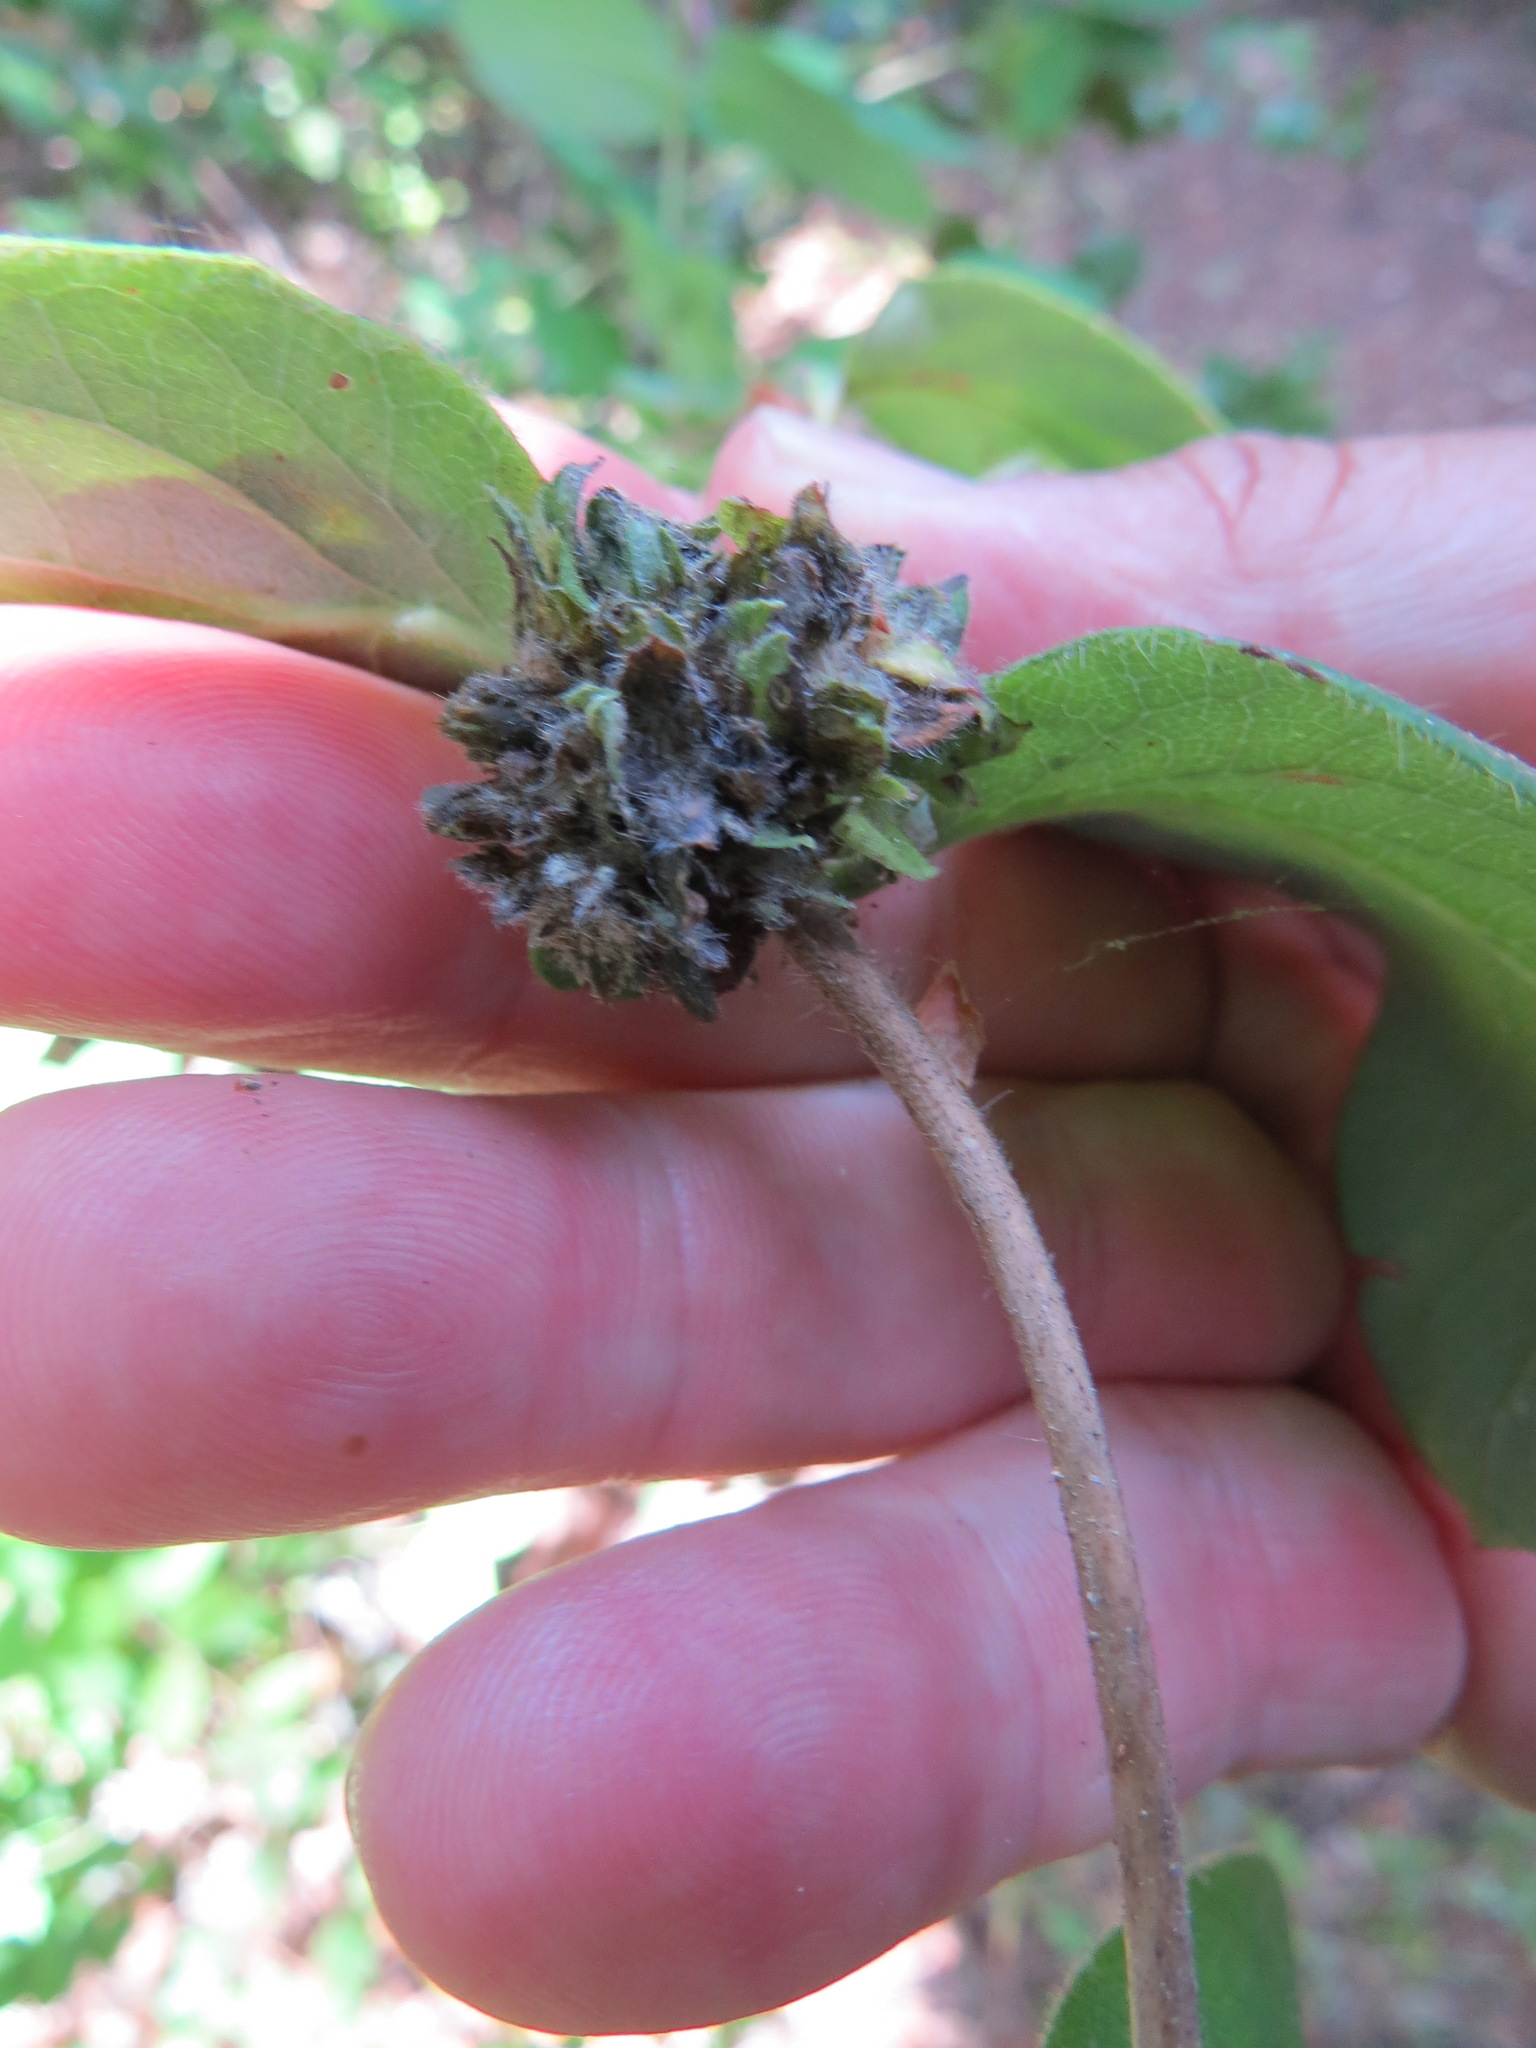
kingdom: Animalia
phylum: Arthropoda
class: Insecta
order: Diptera
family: Cecidomyiidae
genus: Lonicerae
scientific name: Lonicerae russoi
